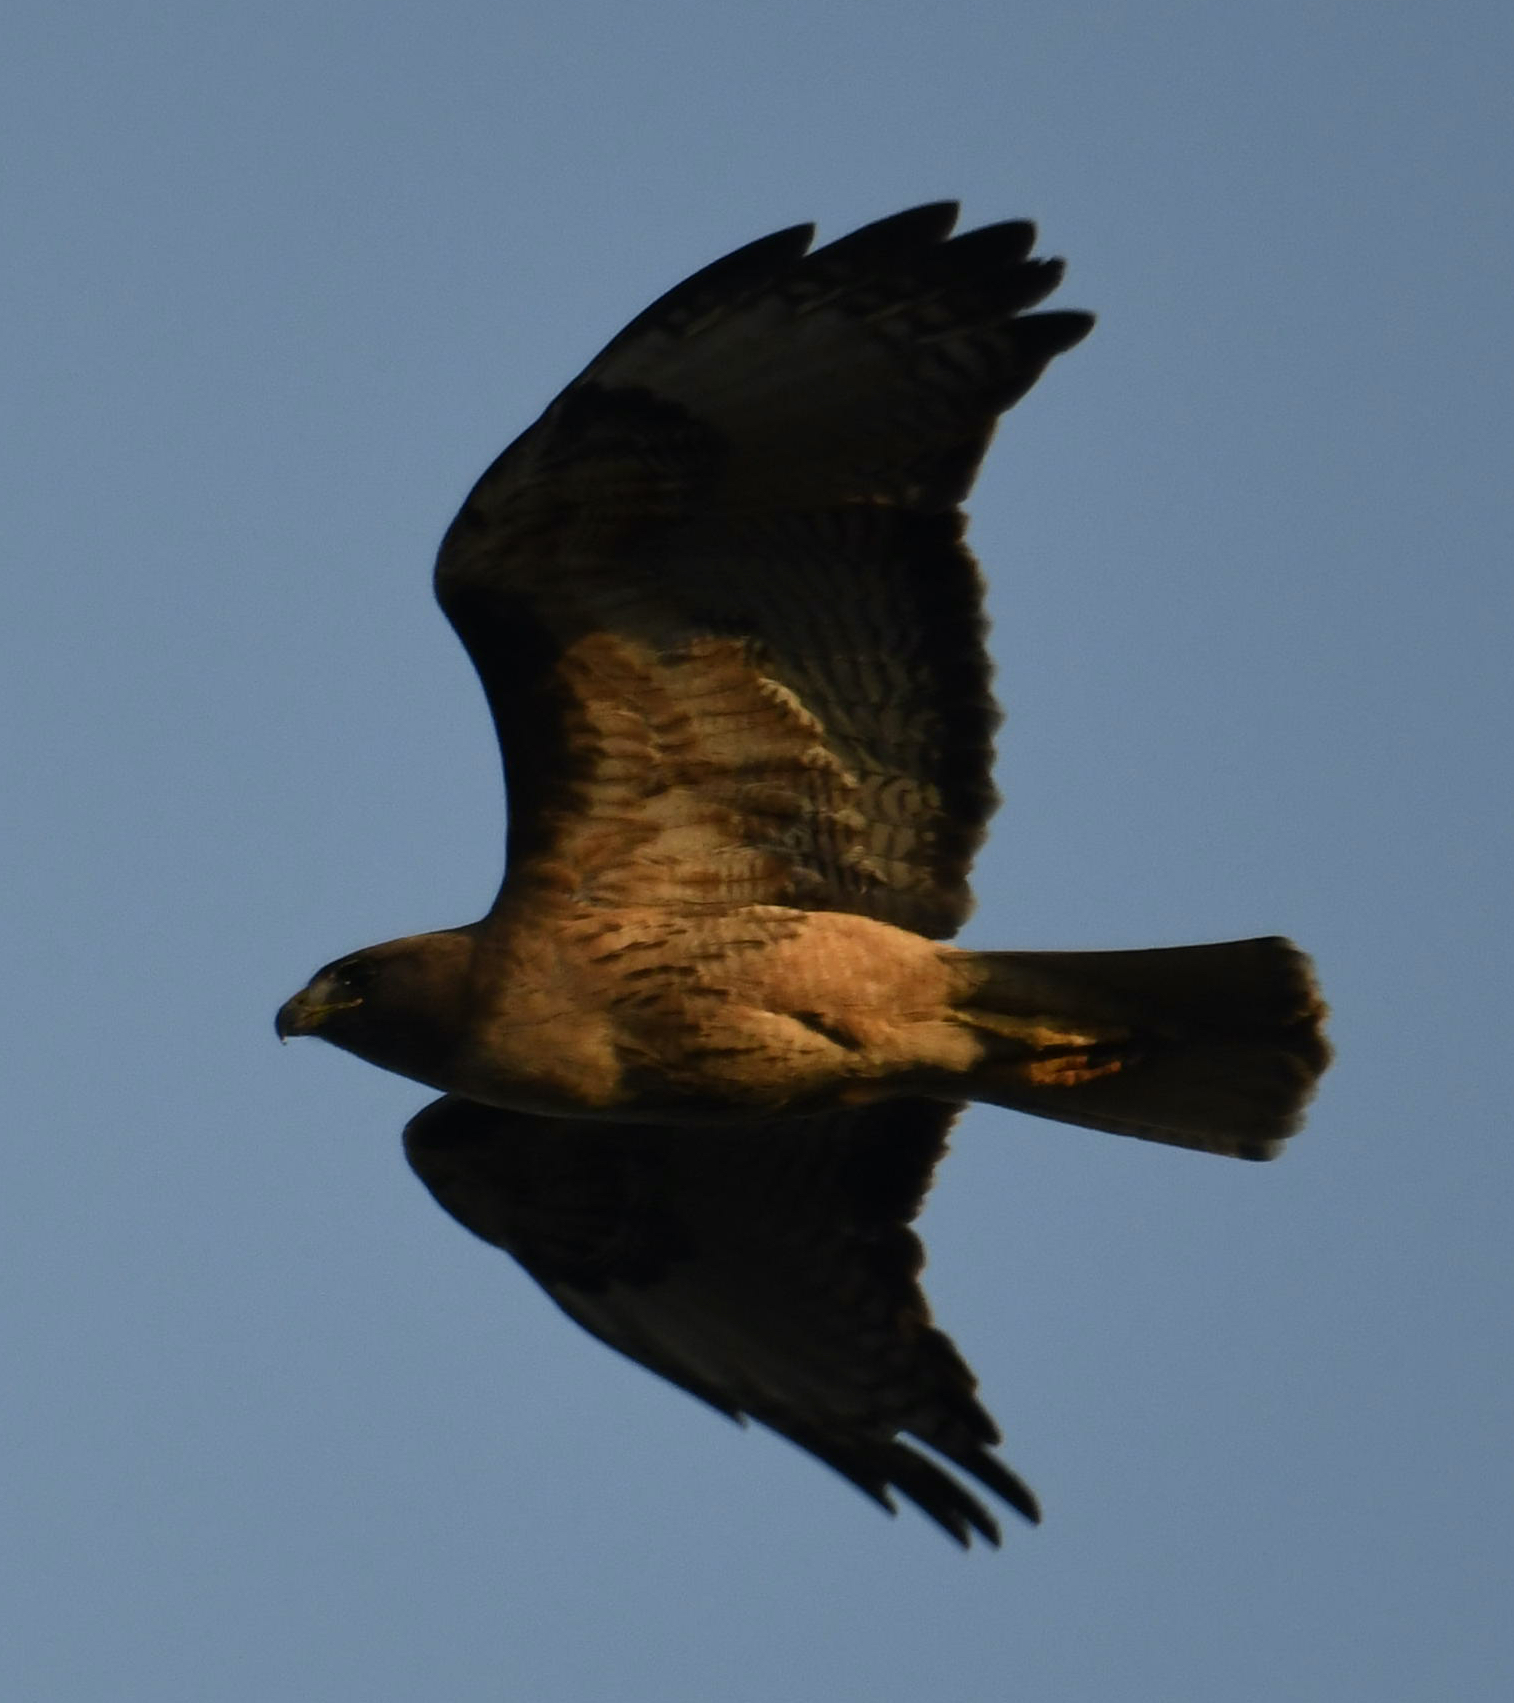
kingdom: Animalia
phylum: Chordata
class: Aves
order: Accipitriformes
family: Accipitridae
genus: Buteo
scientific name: Buteo jamaicensis
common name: Red-tailed hawk
